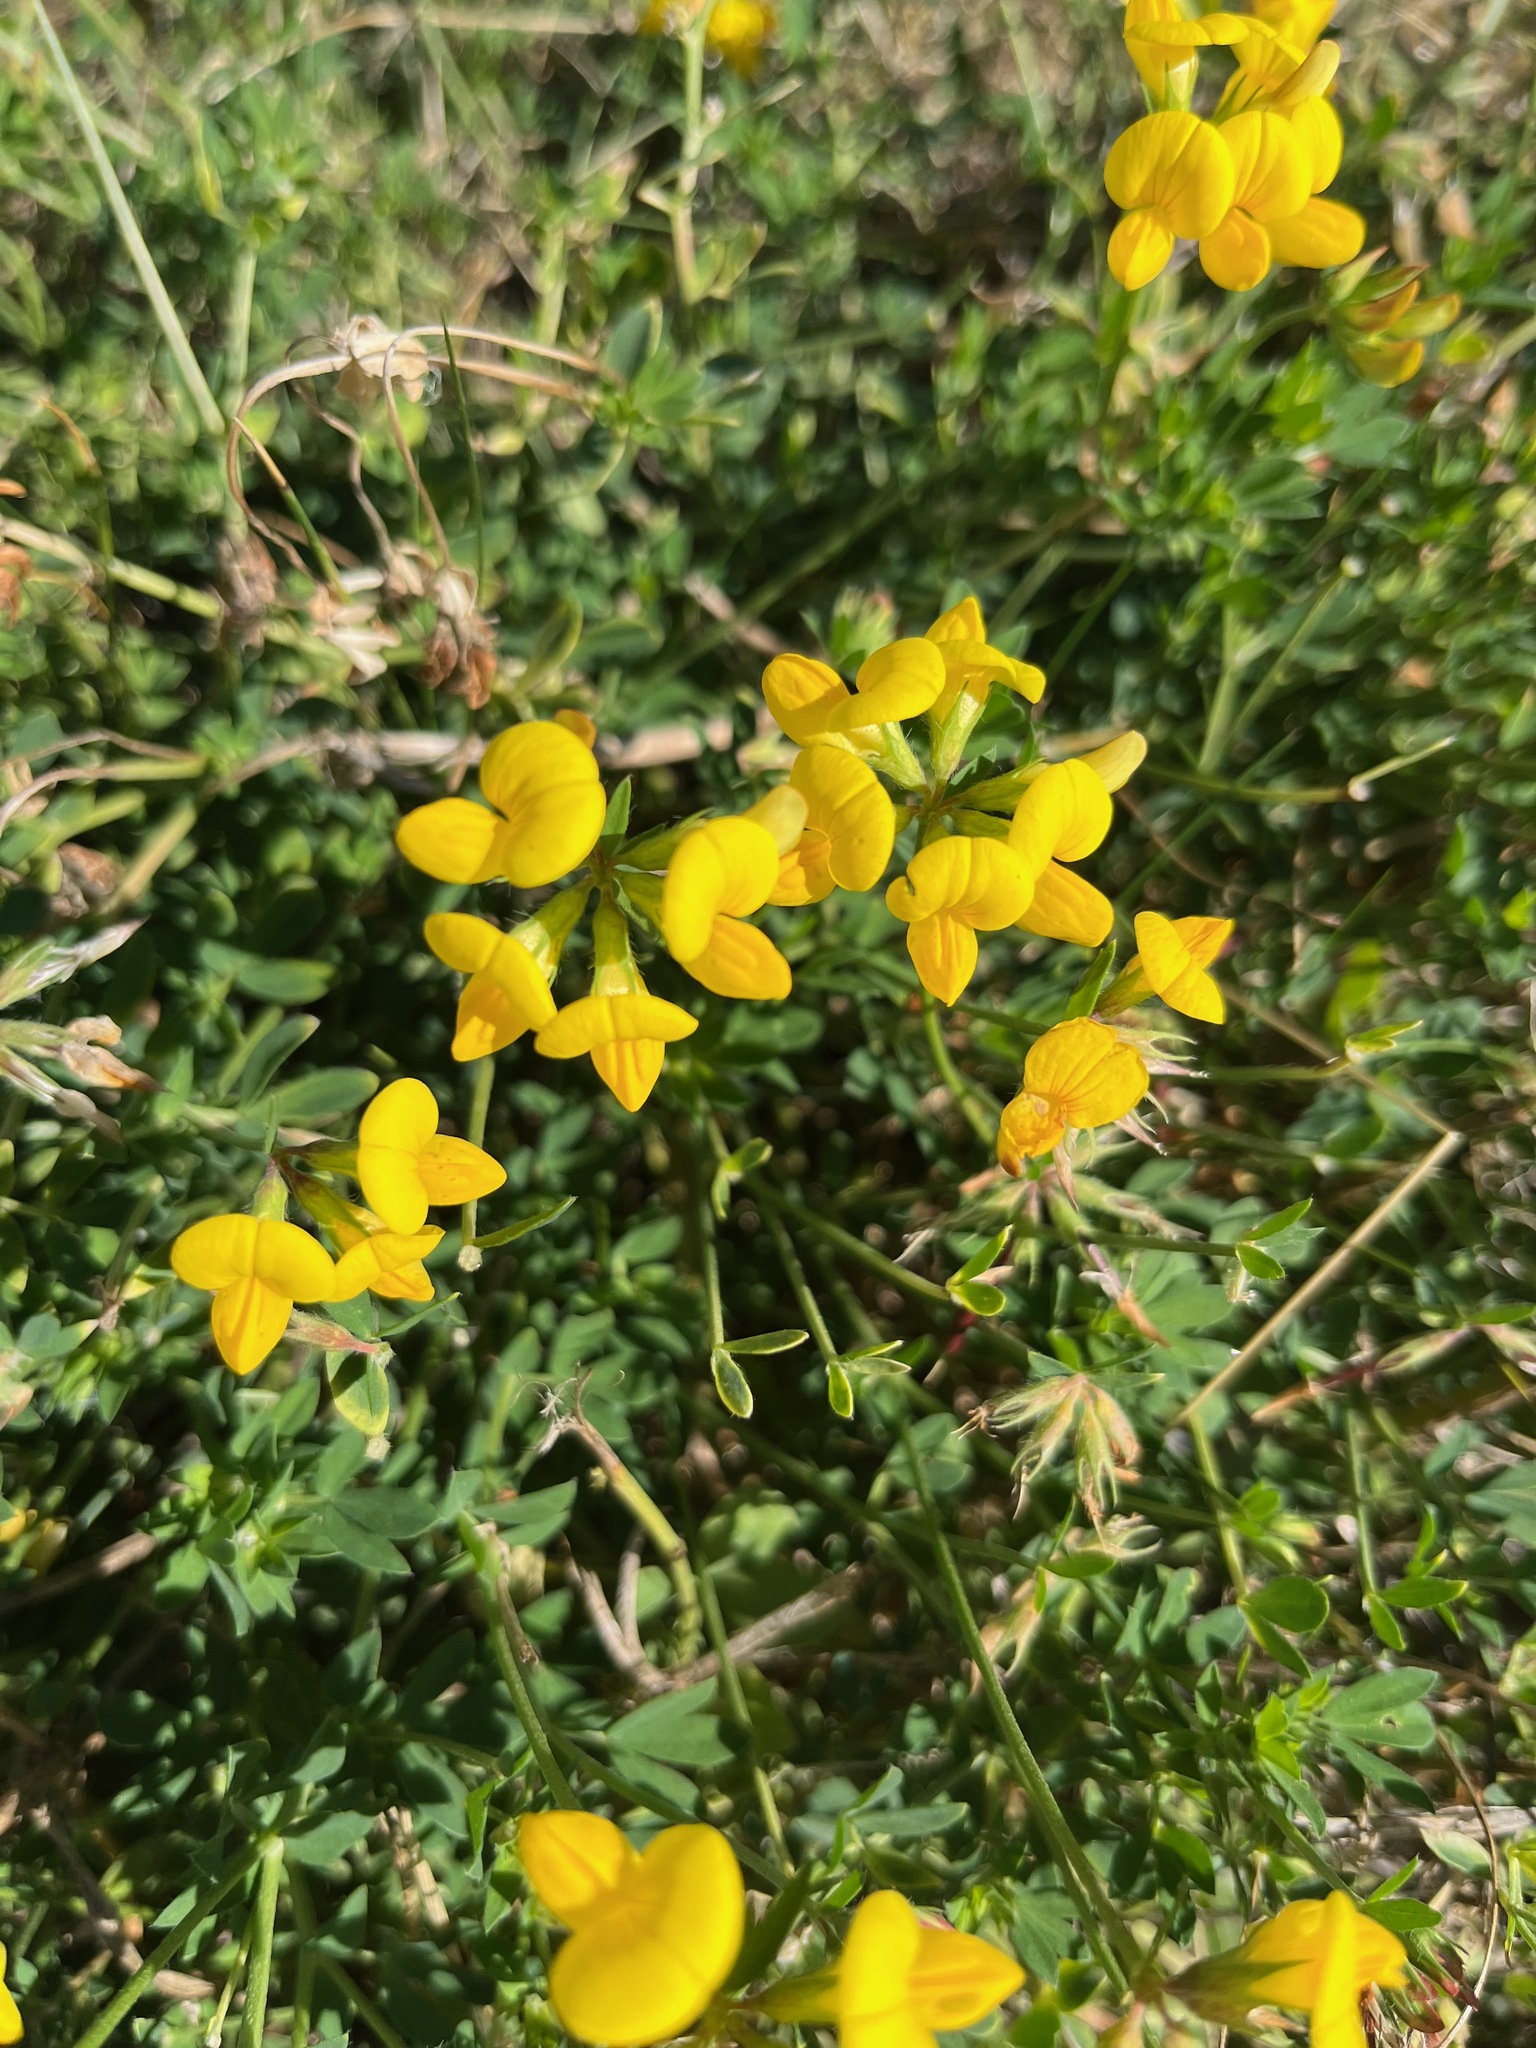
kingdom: Plantae
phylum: Tracheophyta
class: Magnoliopsida
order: Fabales
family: Fabaceae
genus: Lotus
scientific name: Lotus corniculatus
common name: Common bird's-foot-trefoil
